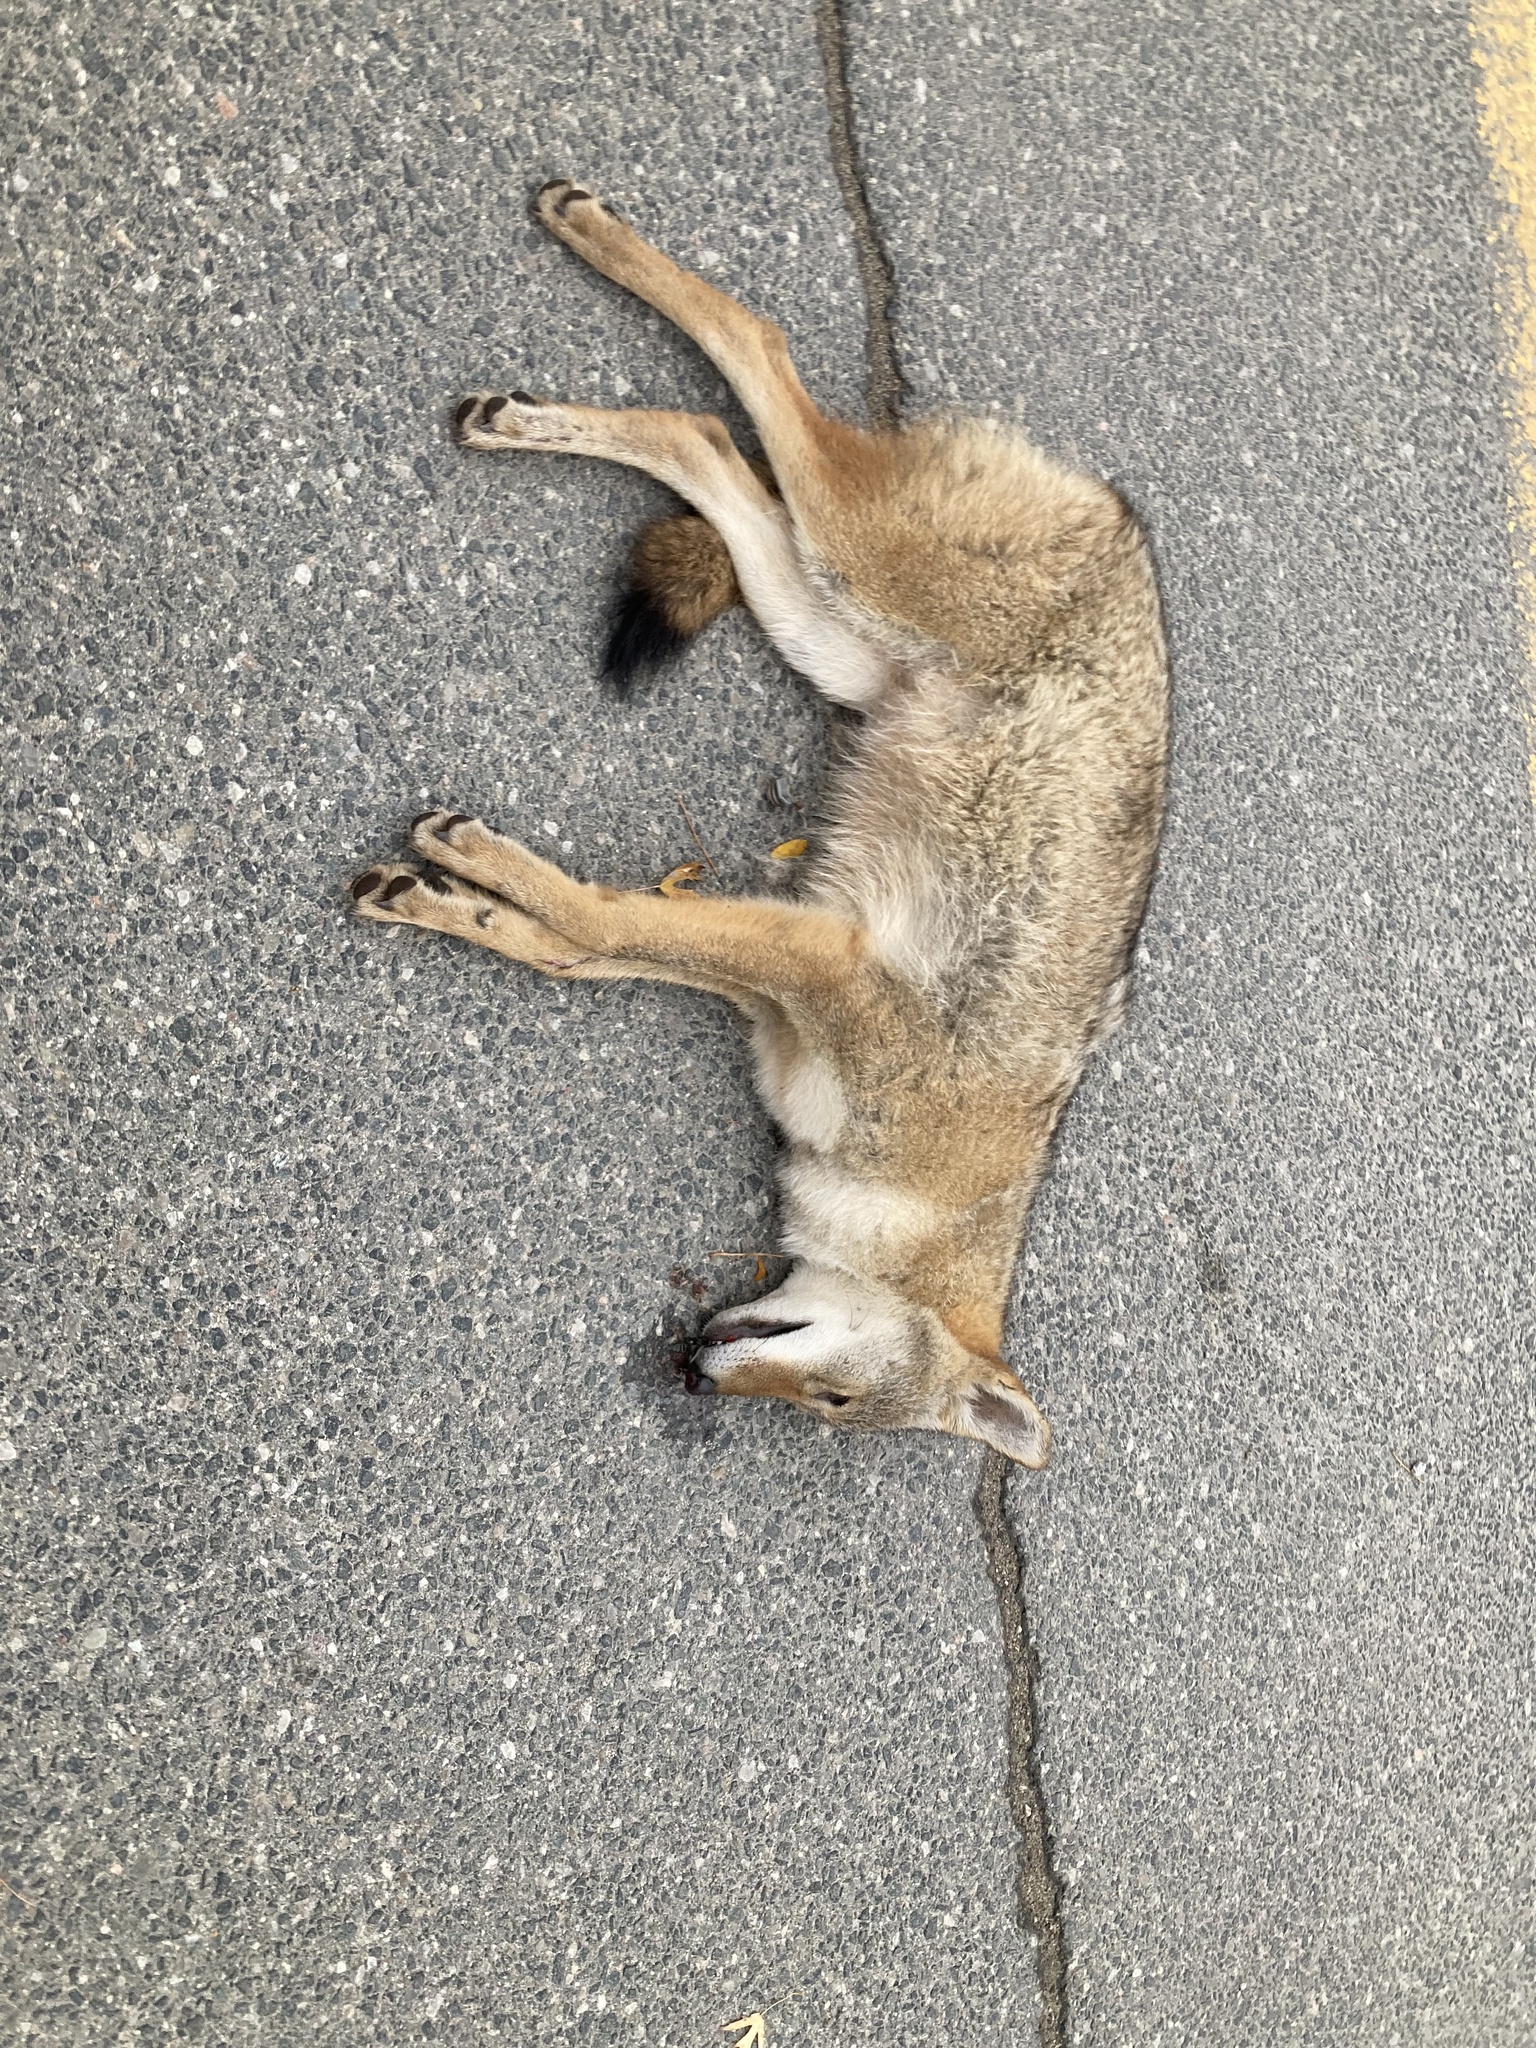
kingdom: Animalia
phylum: Chordata
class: Mammalia
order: Carnivora
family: Canidae
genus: Canis
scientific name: Canis latrans
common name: Coyote
